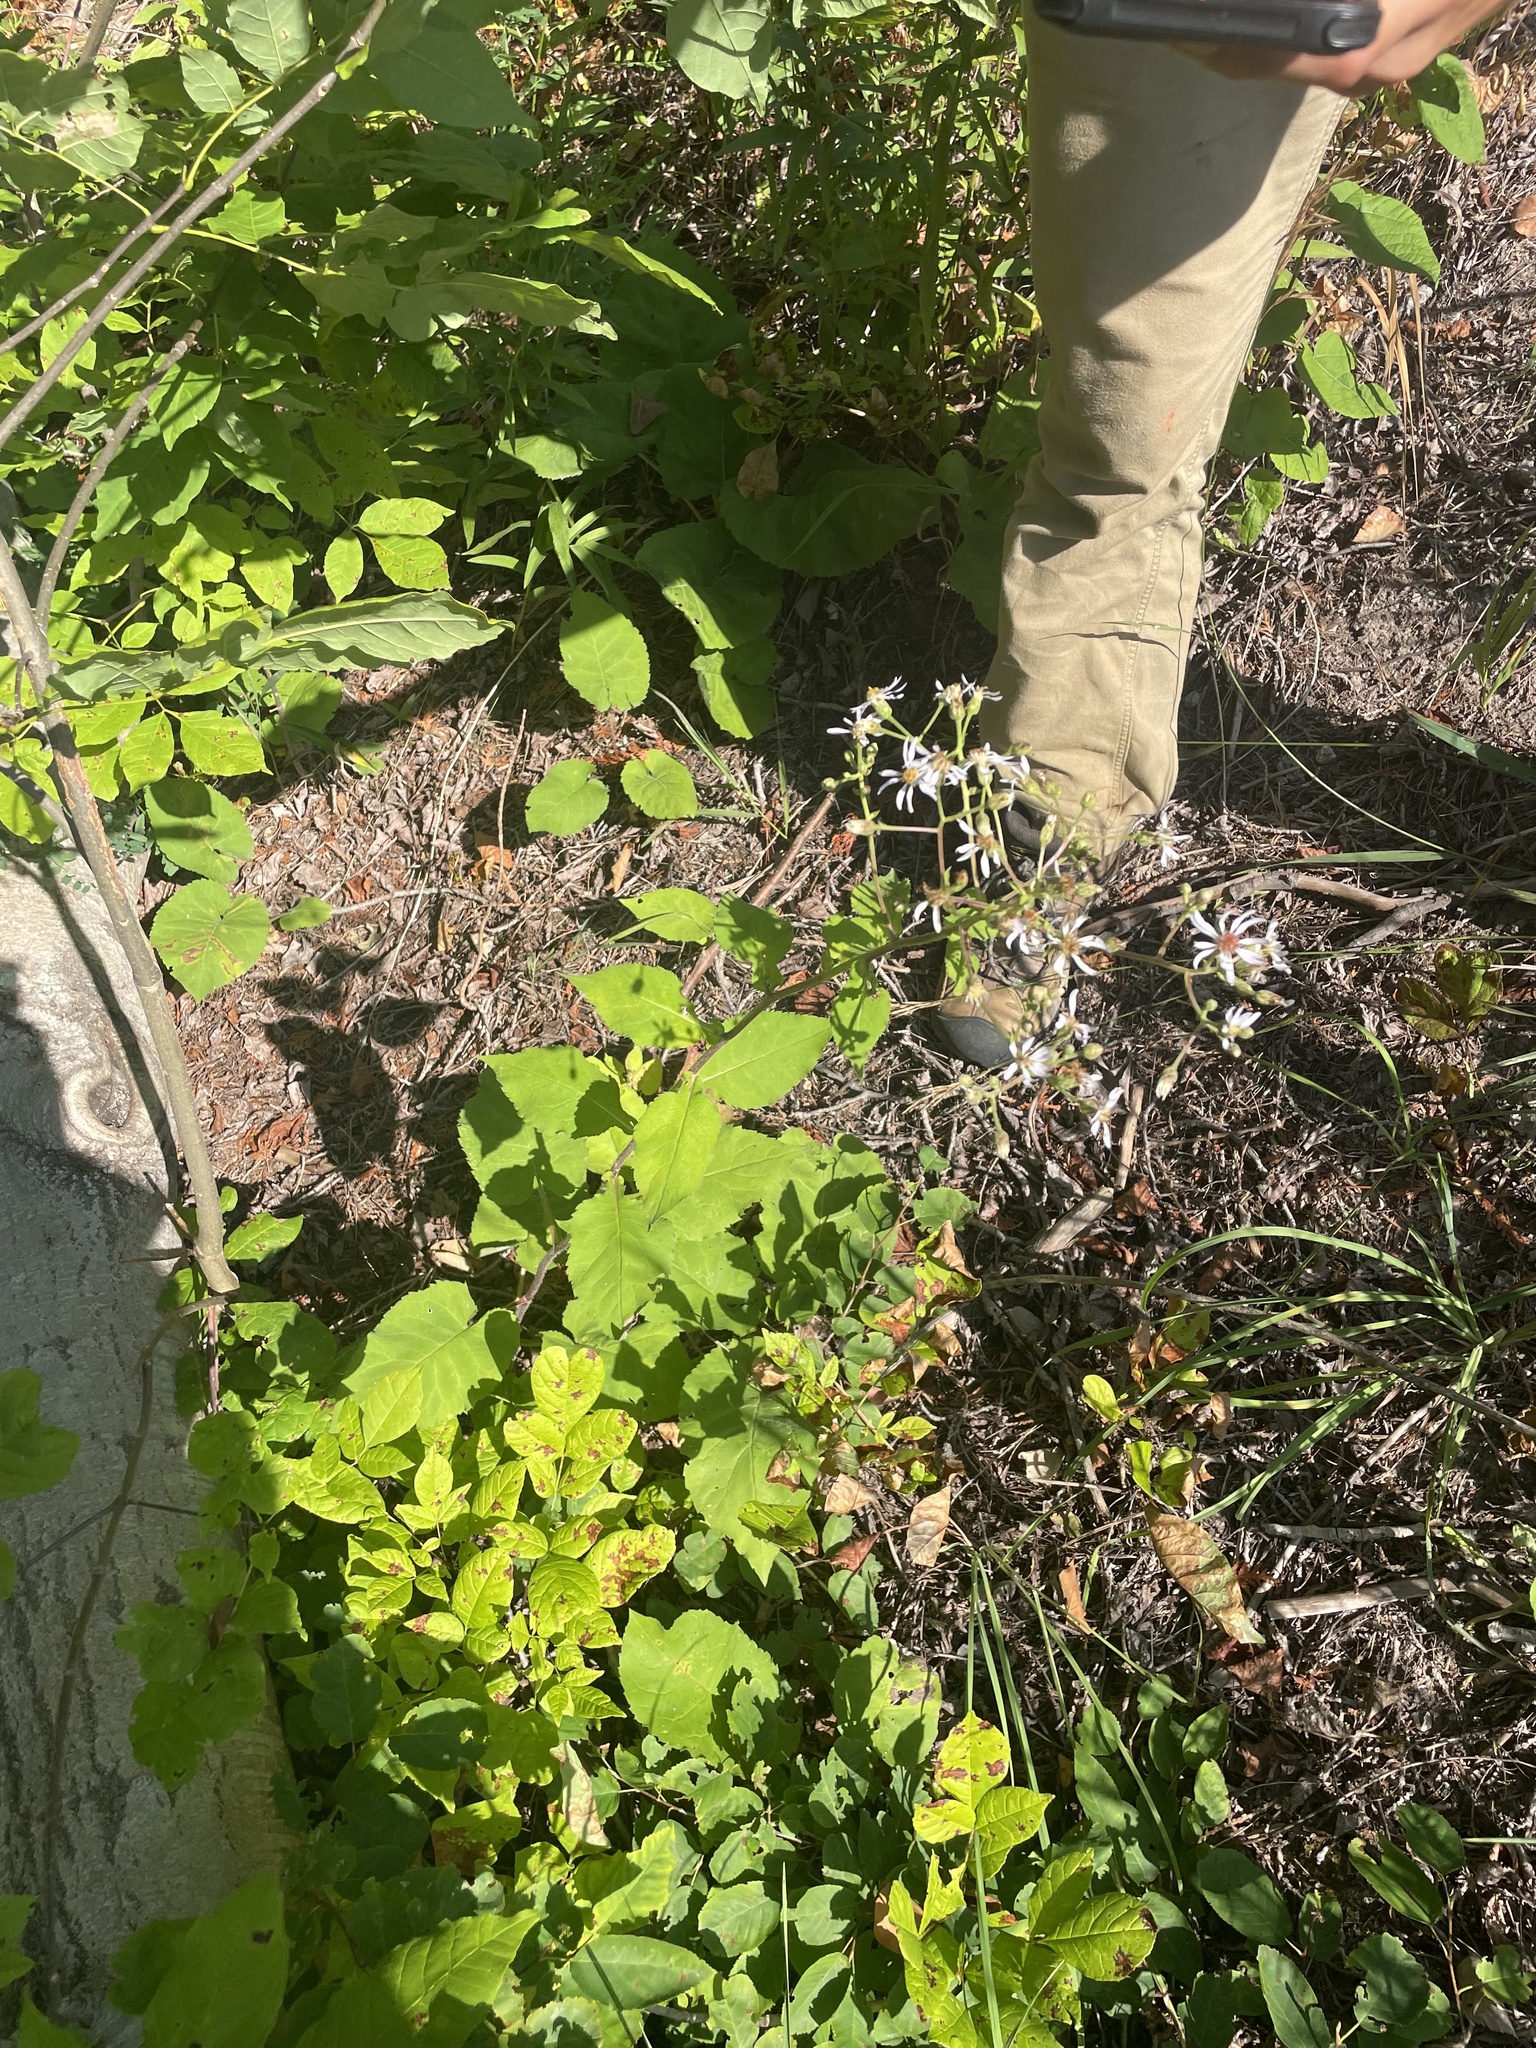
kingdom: Plantae
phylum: Tracheophyta
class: Magnoliopsida
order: Asterales
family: Asteraceae
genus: Eurybia
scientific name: Eurybia macrophylla
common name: Big-leaved aster
